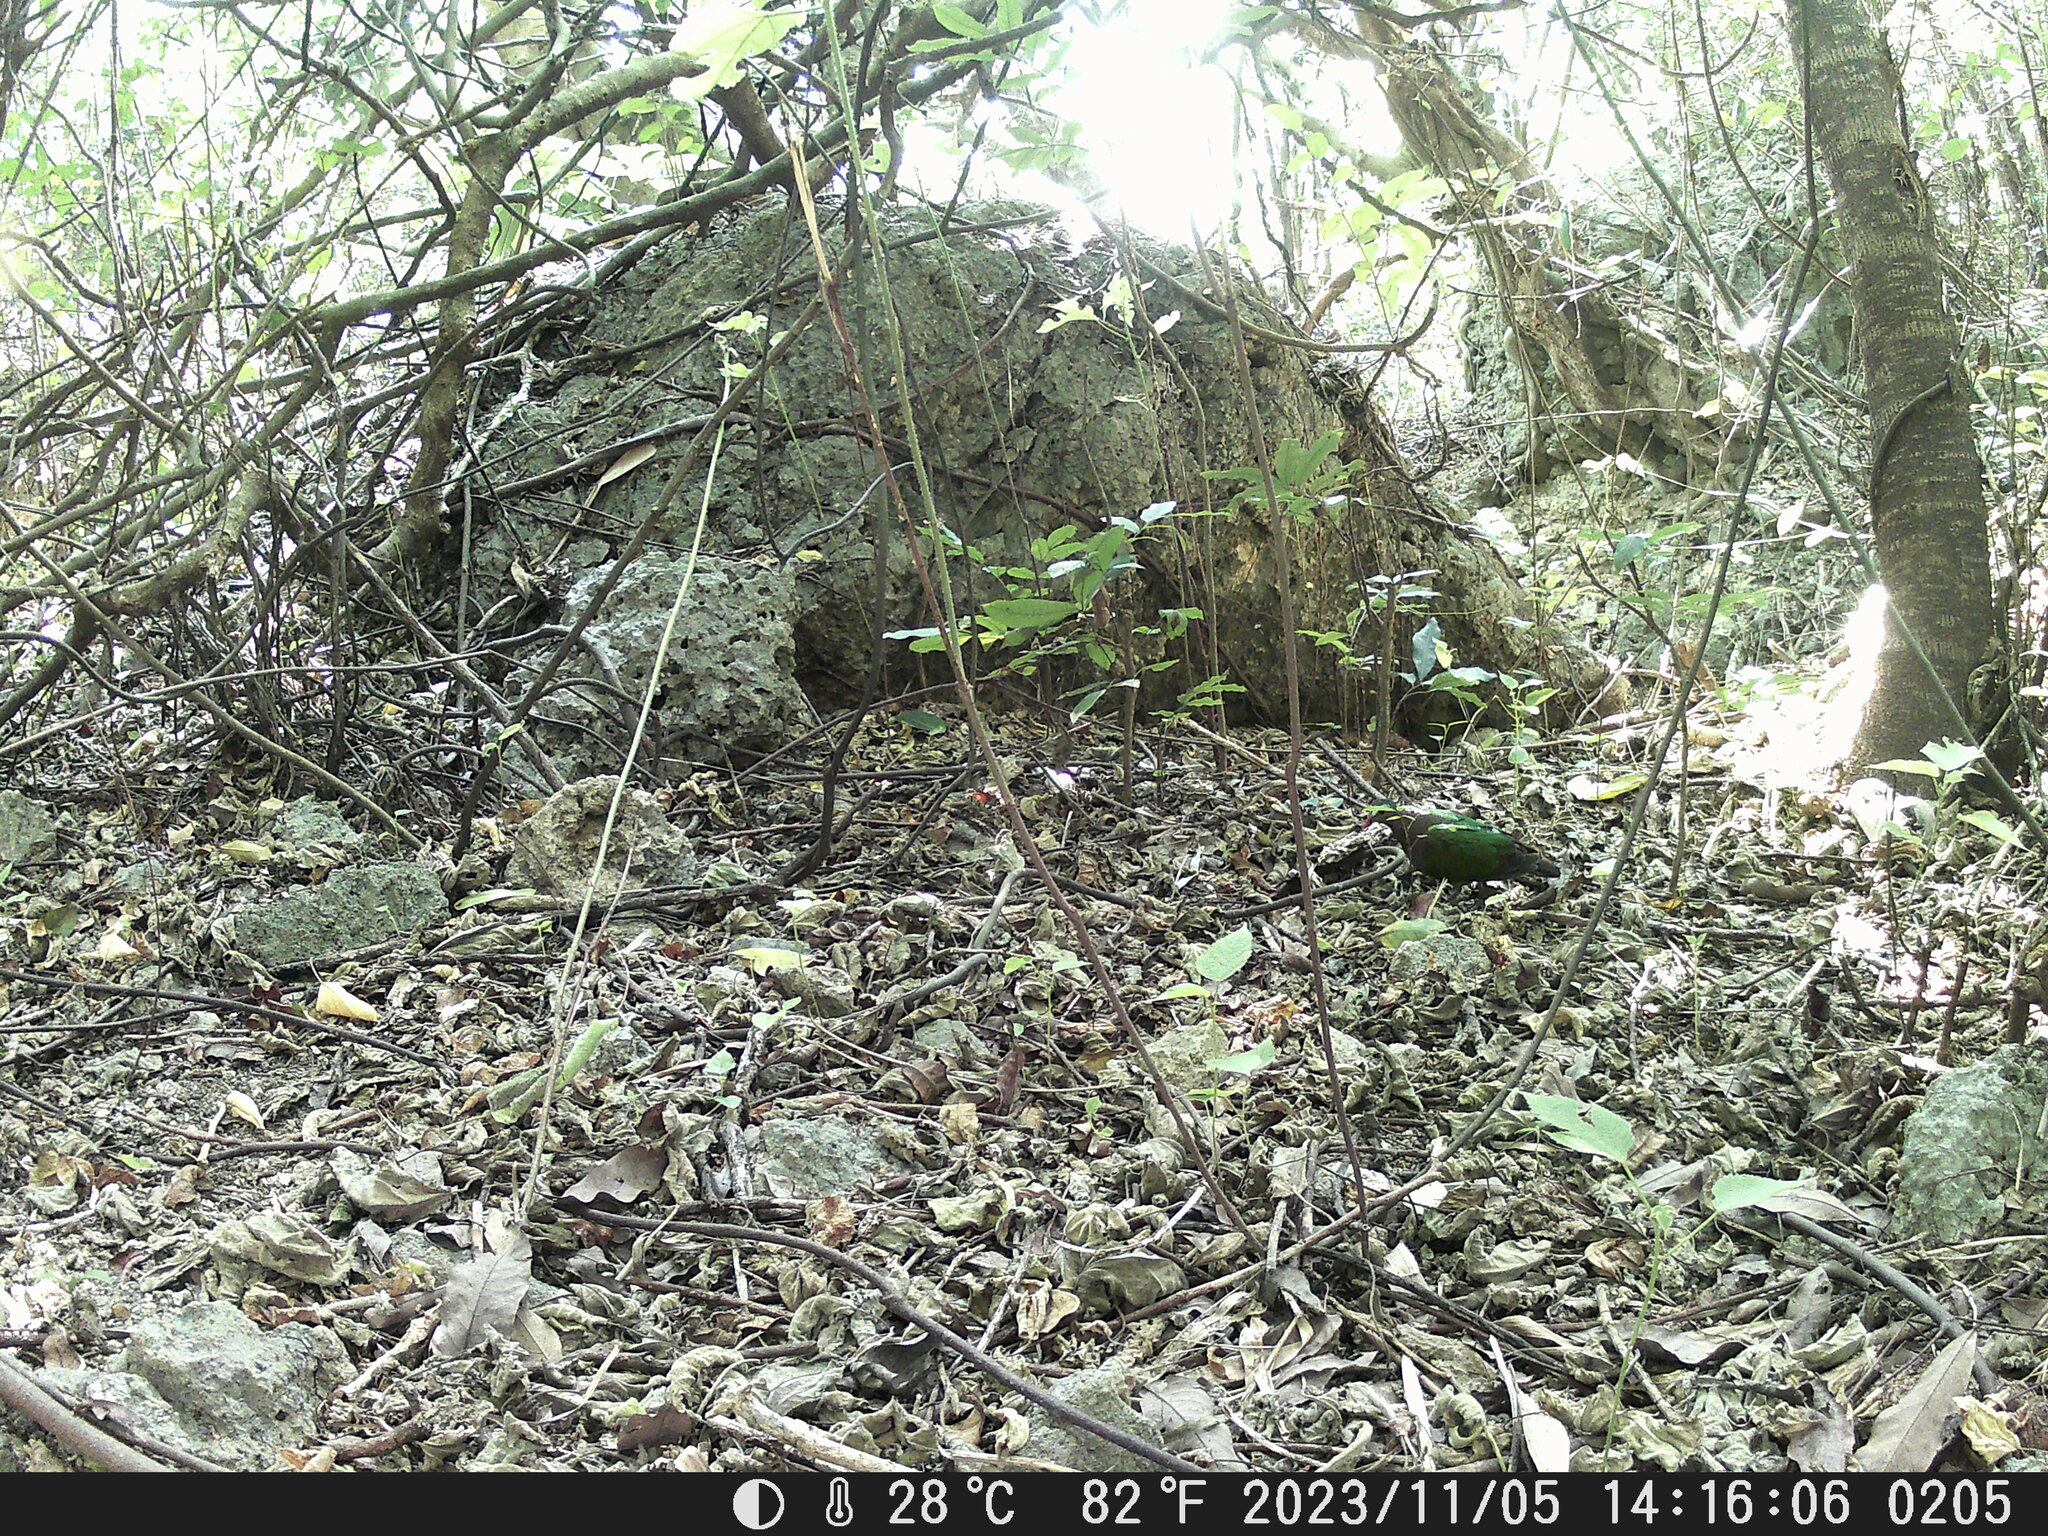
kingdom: Animalia
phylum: Chordata
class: Aves
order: Columbiformes
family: Columbidae
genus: Chalcophaps
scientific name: Chalcophaps indica
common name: Common emerald dove
